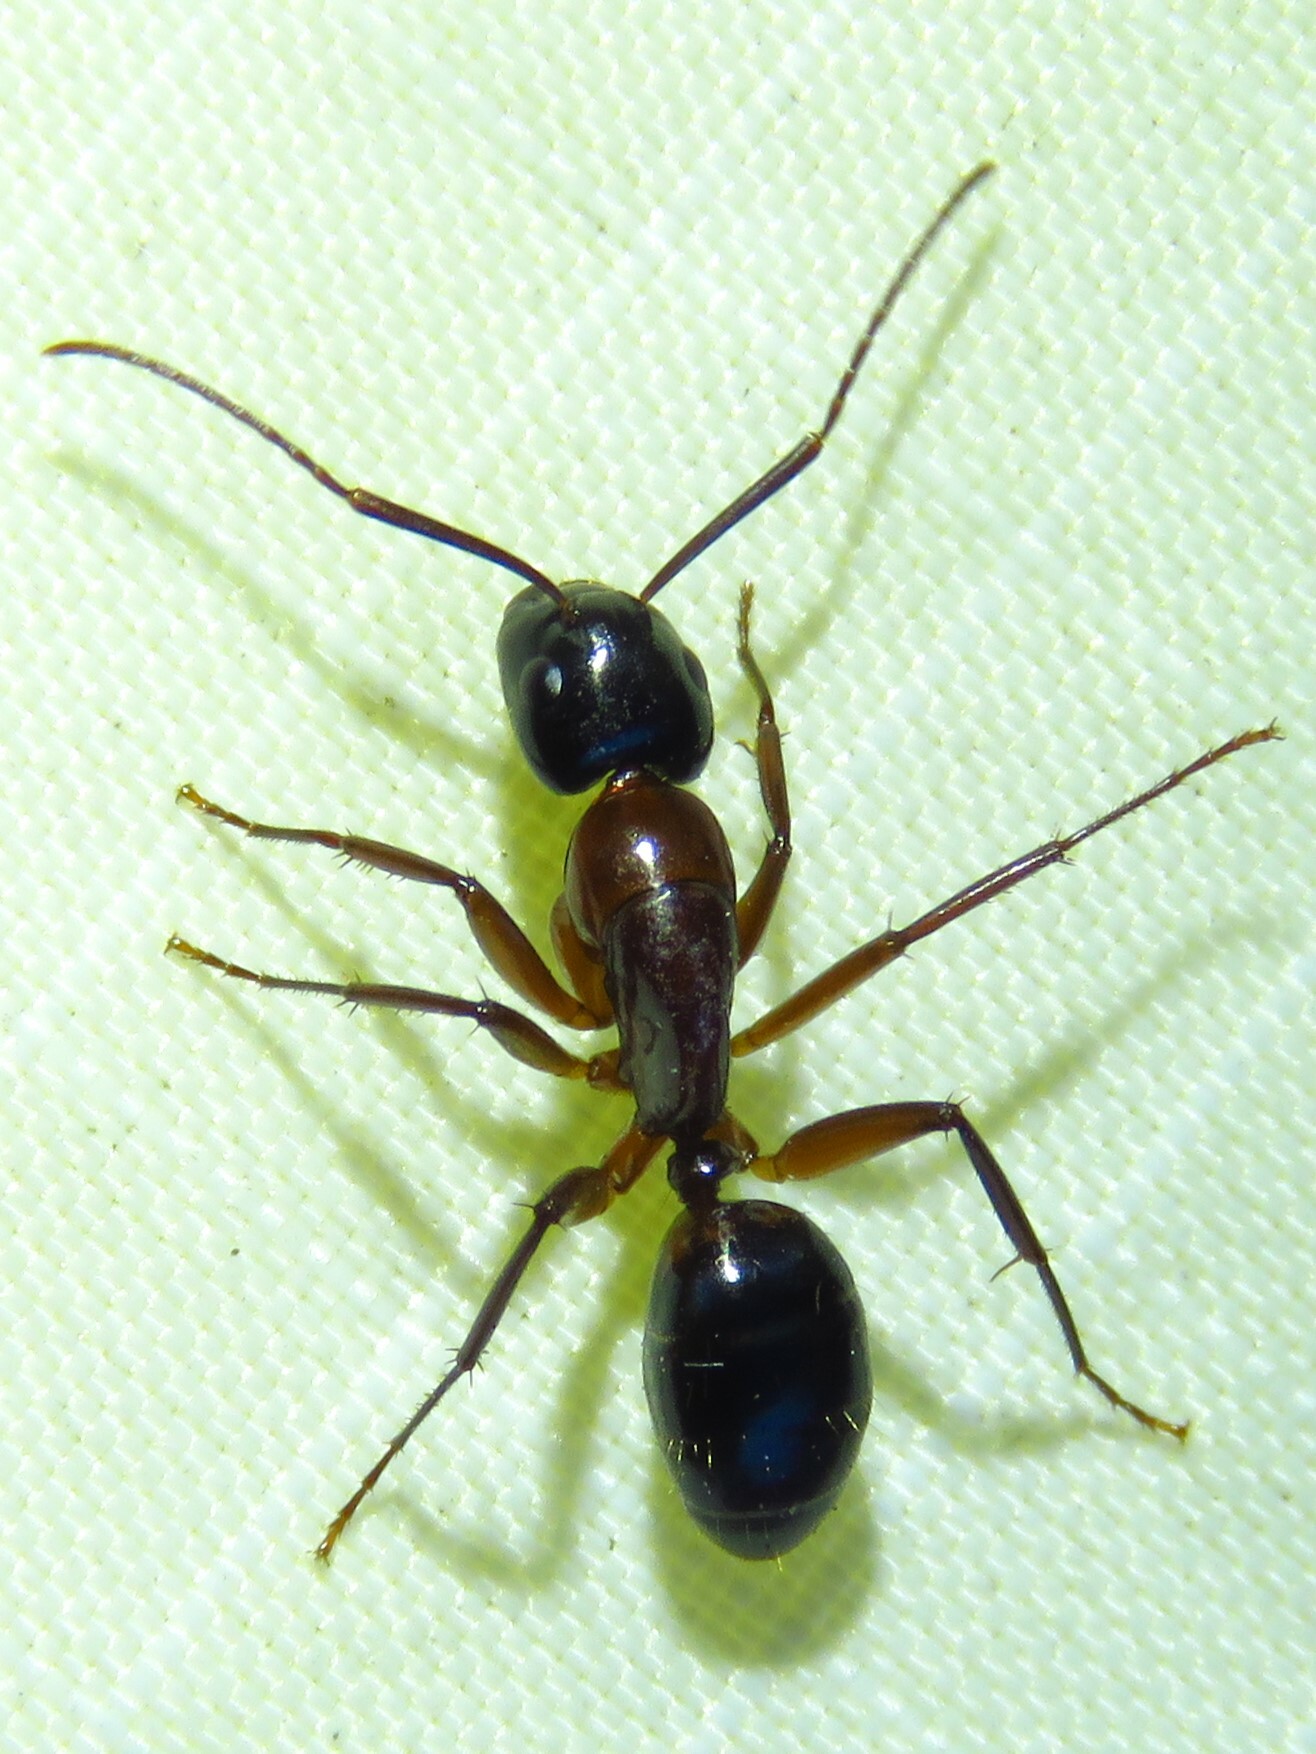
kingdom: Animalia
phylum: Arthropoda
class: Insecta
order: Hymenoptera
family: Formicidae
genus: Camponotus
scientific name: Camponotus texanus
